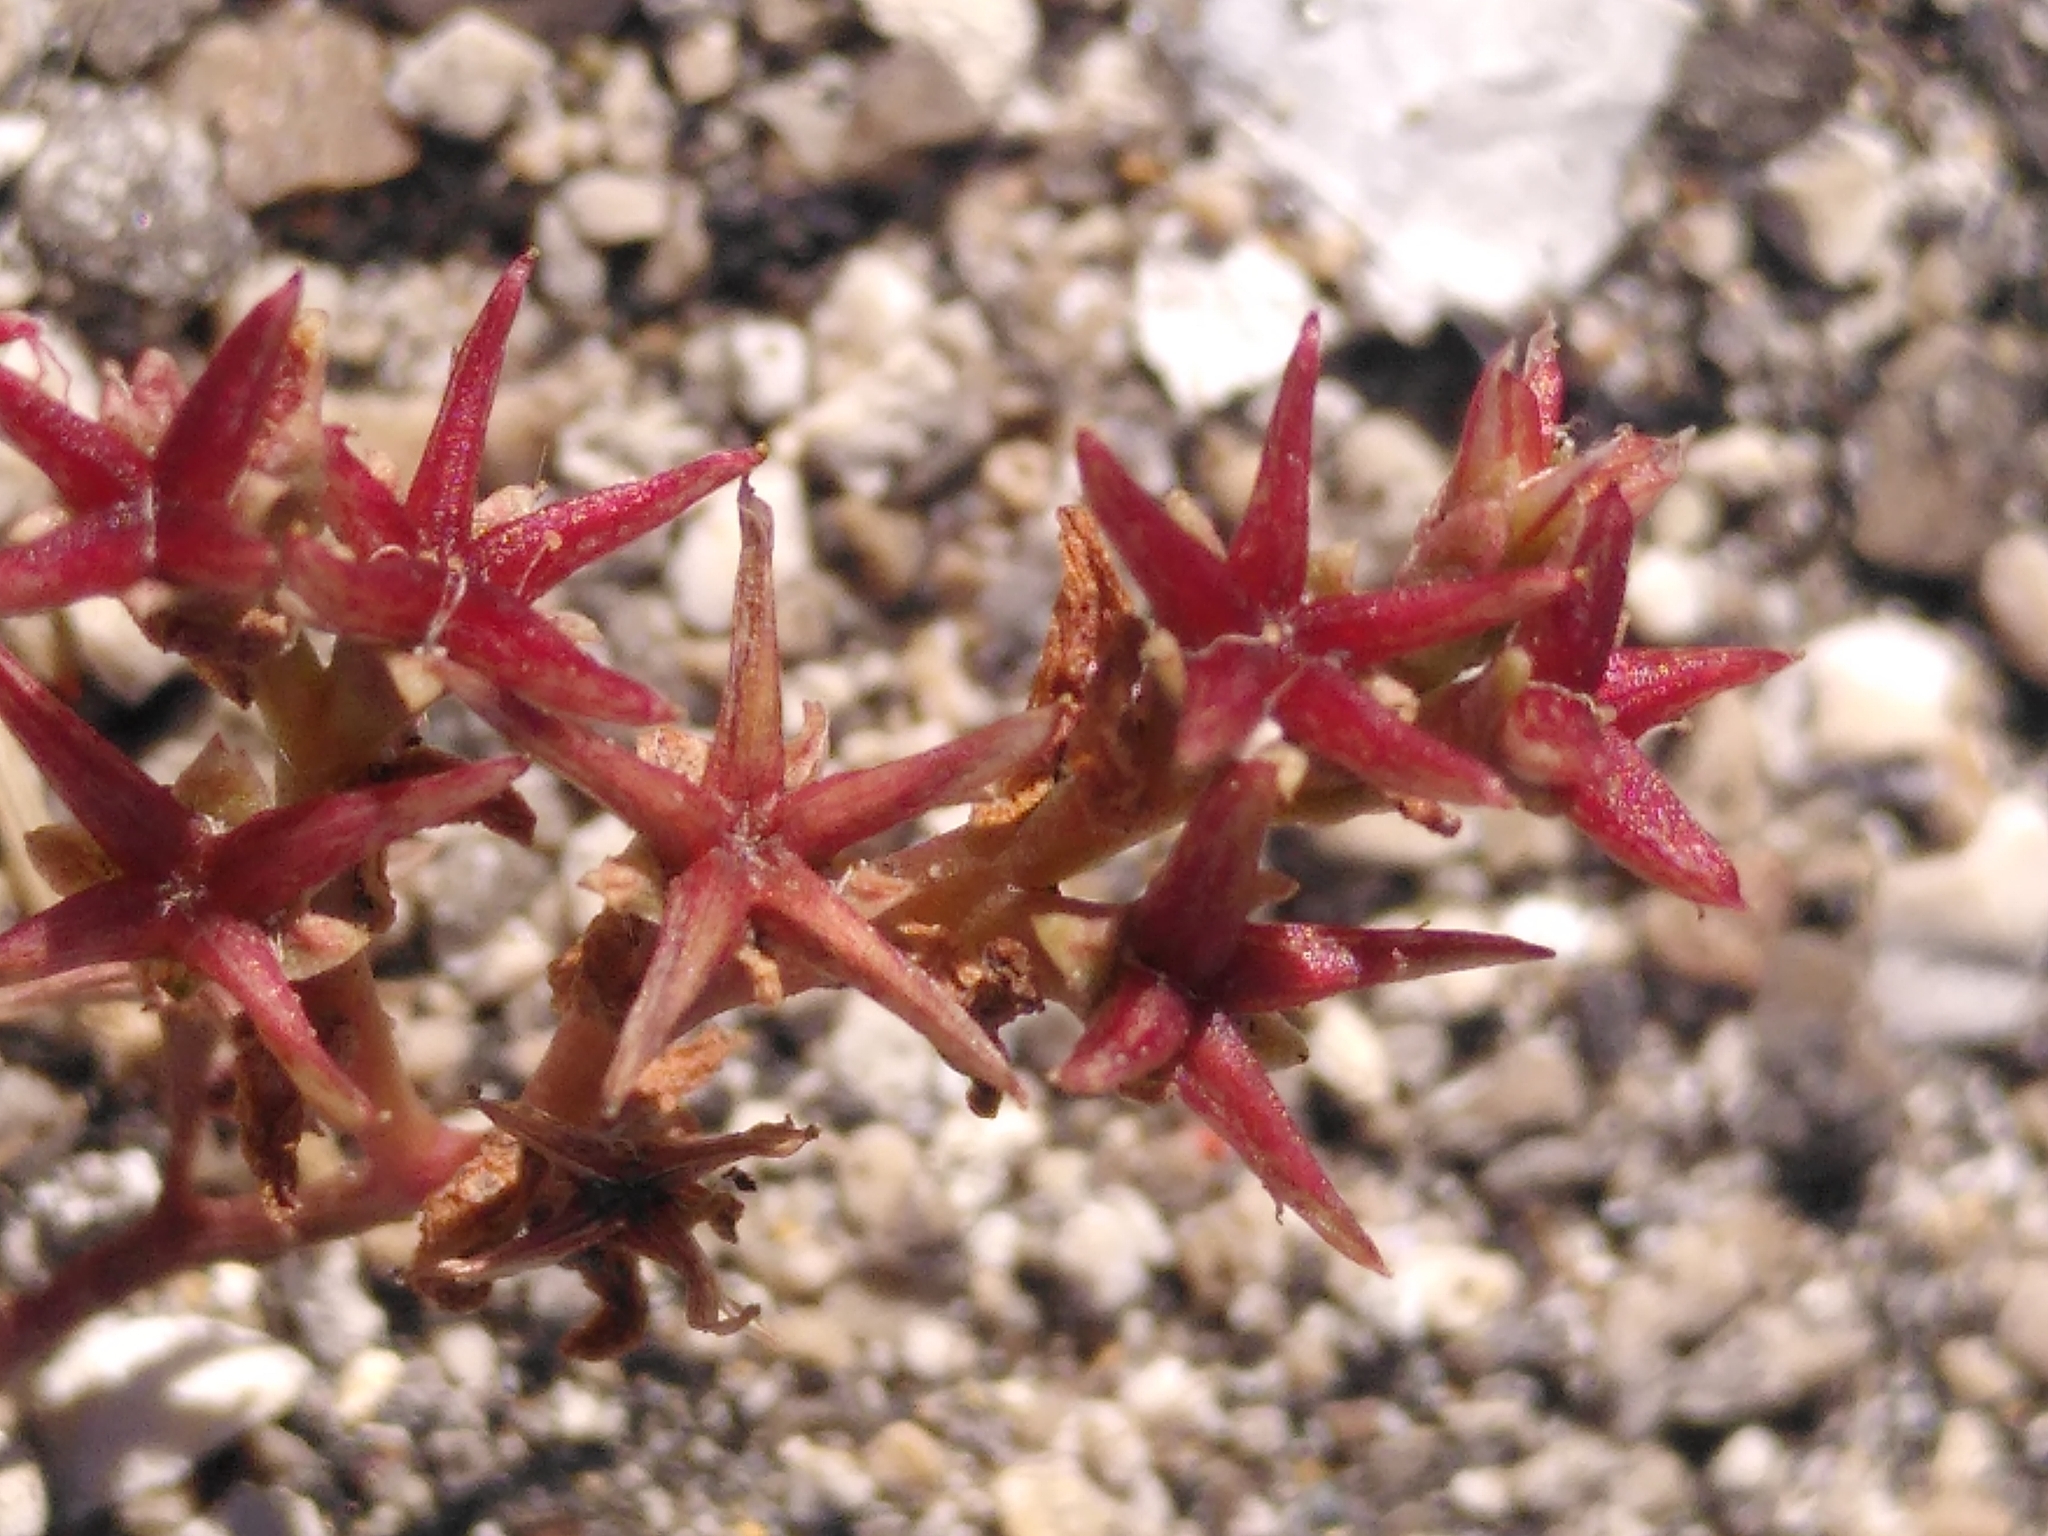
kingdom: Plantae
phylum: Tracheophyta
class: Magnoliopsida
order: Saxifragales
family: Crassulaceae
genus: Sedum
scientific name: Sedum cespitosum
